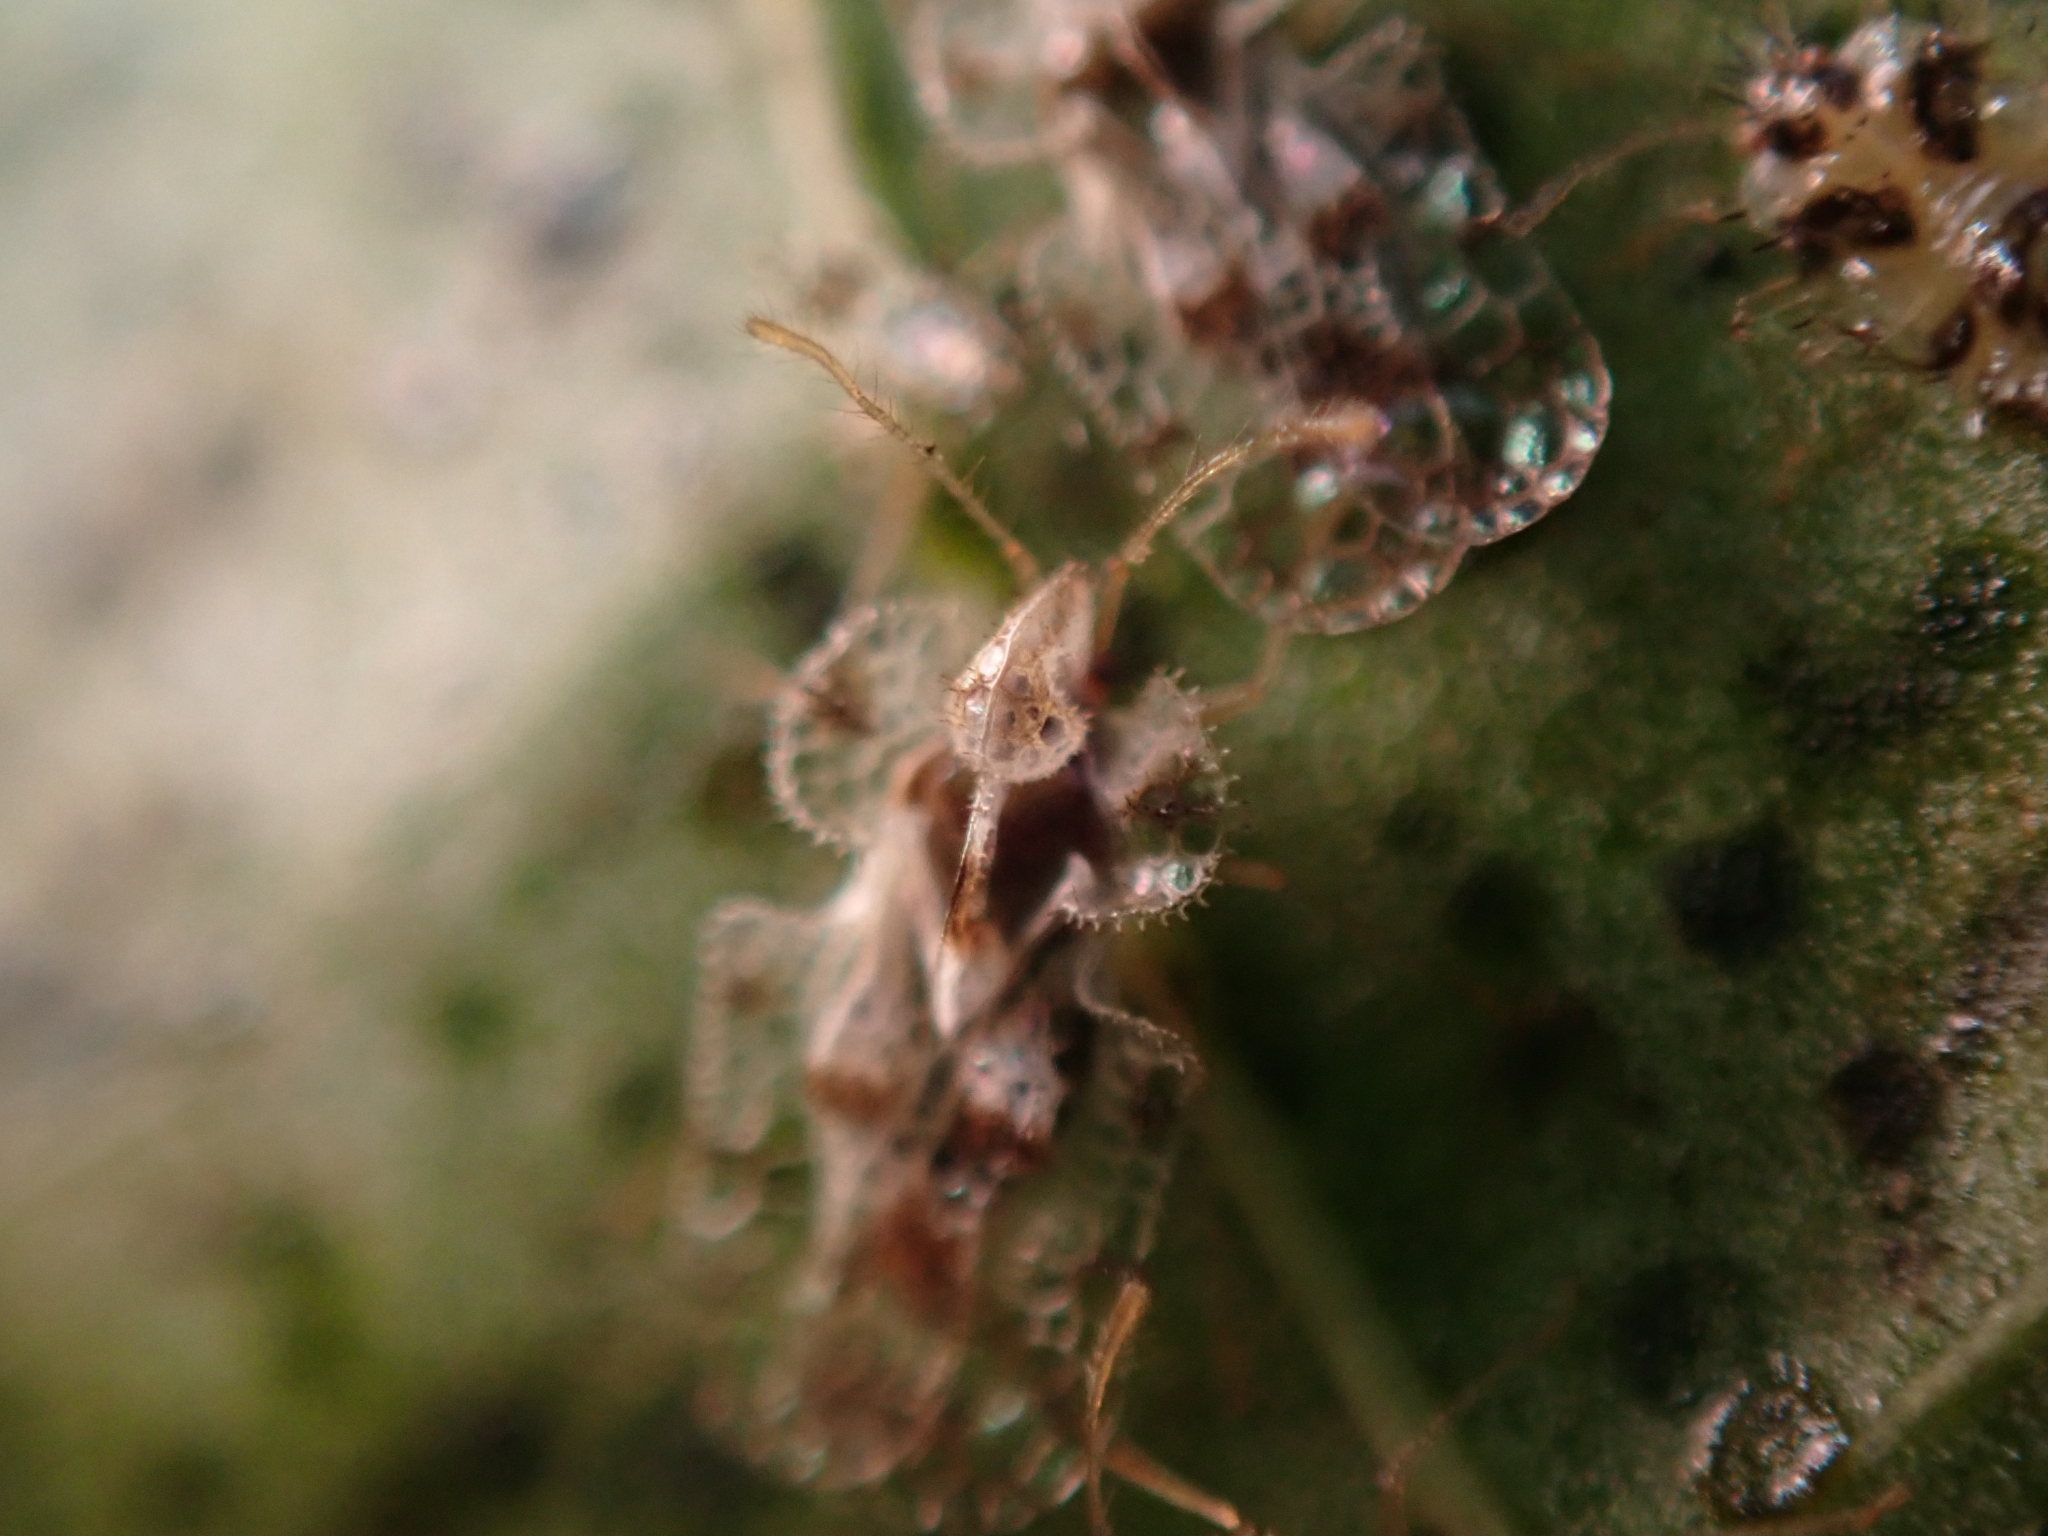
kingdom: Animalia
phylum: Arthropoda
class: Insecta
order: Hemiptera
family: Tingidae
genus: Corythucha
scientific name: Corythucha gossypii
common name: Cotton lace bug
